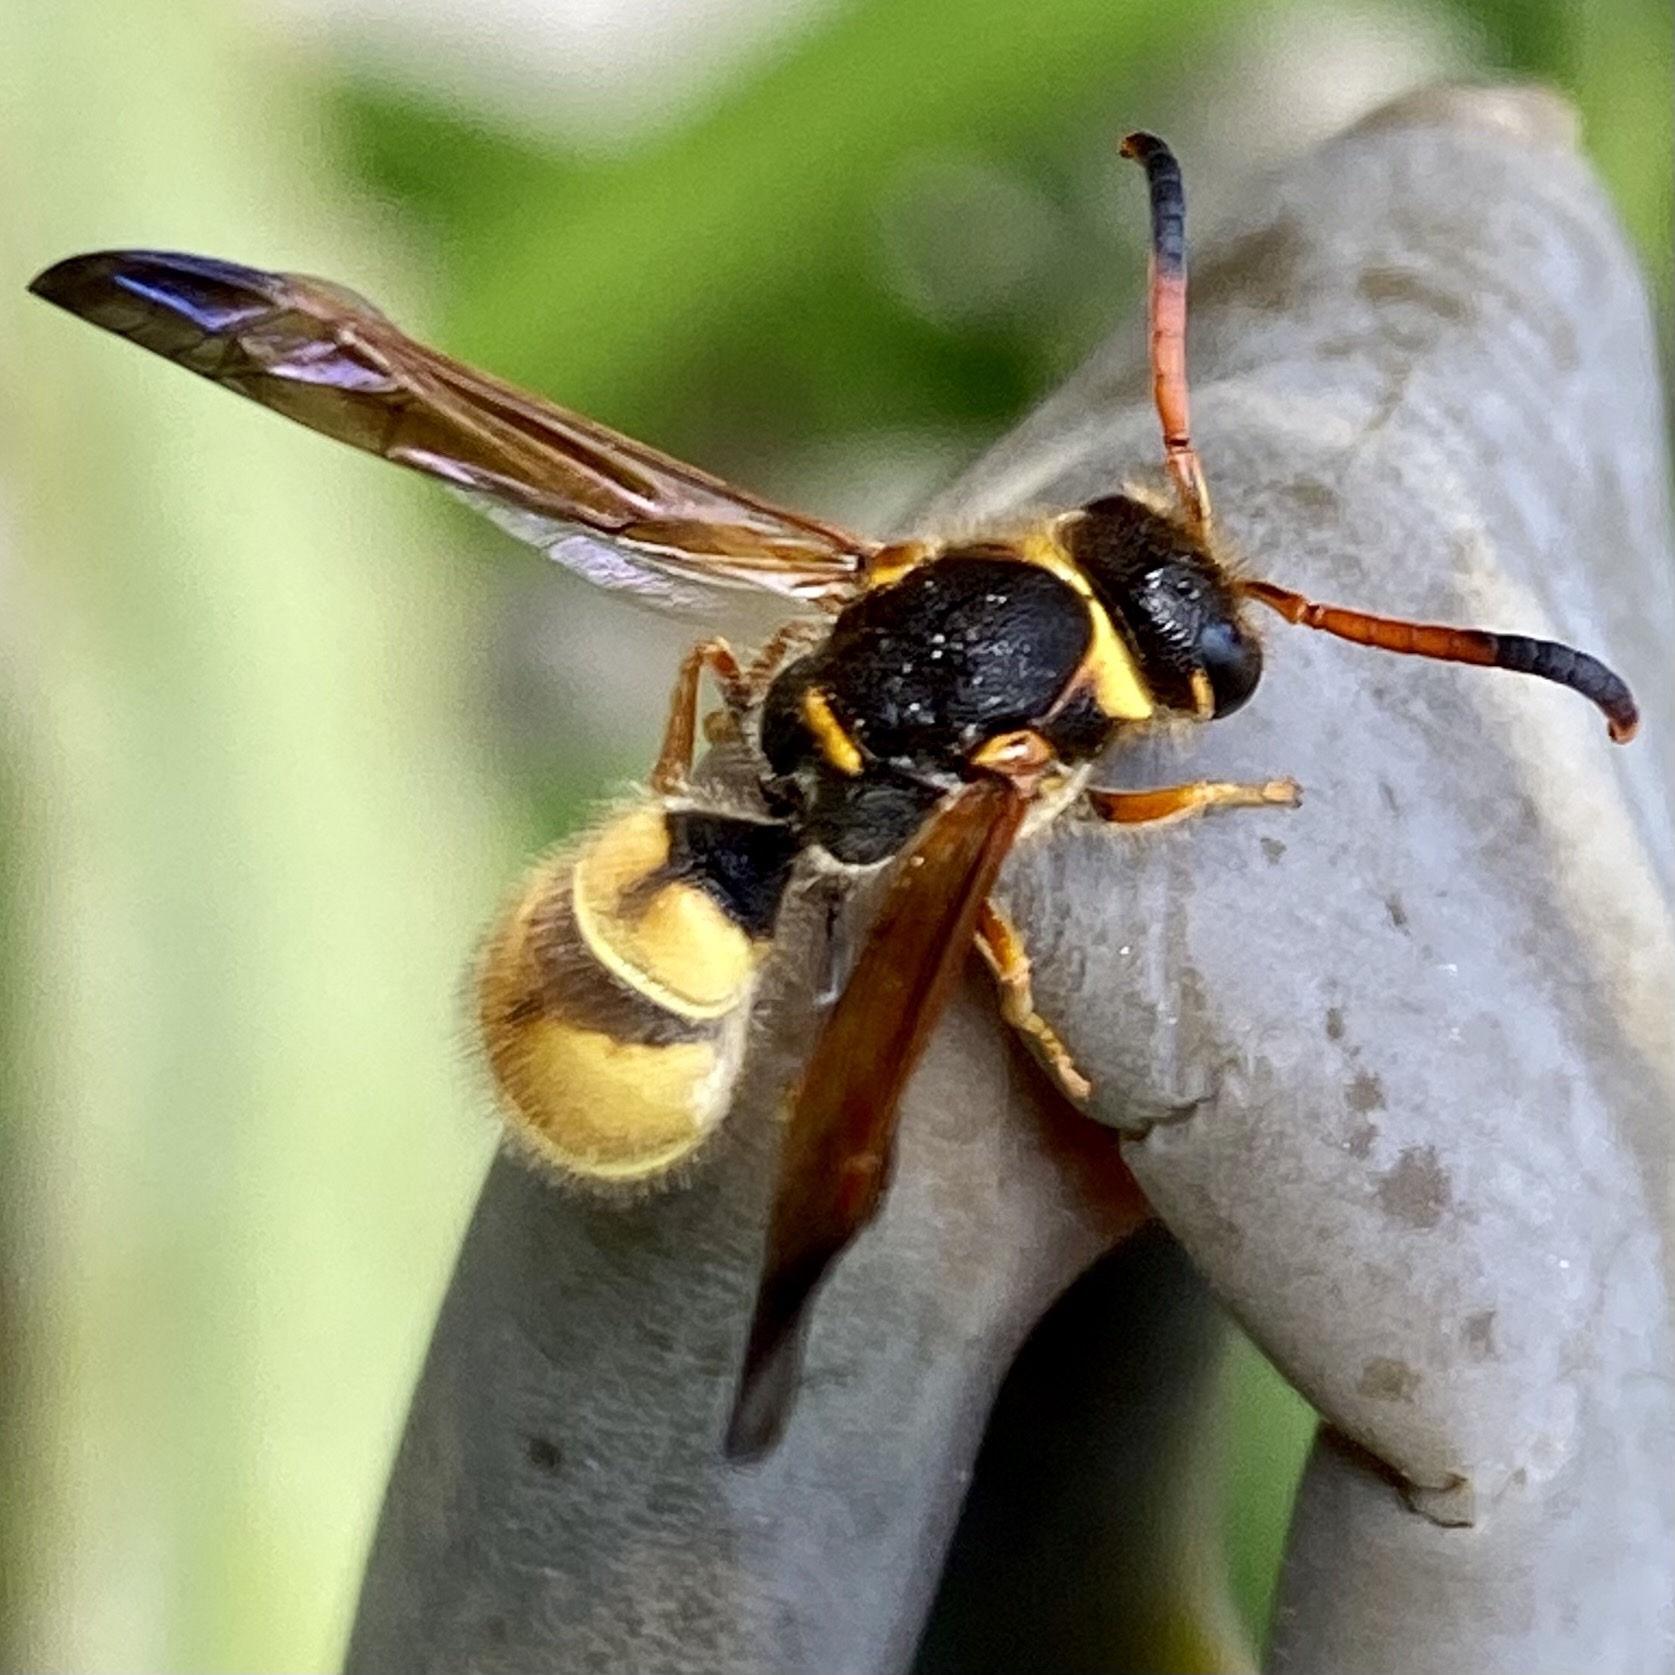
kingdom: Animalia
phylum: Arthropoda
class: Insecta
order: Hymenoptera
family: Vespidae
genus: Ancistrocerus
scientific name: Ancistrocerus tuberculocephalus
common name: Vespid wasp
